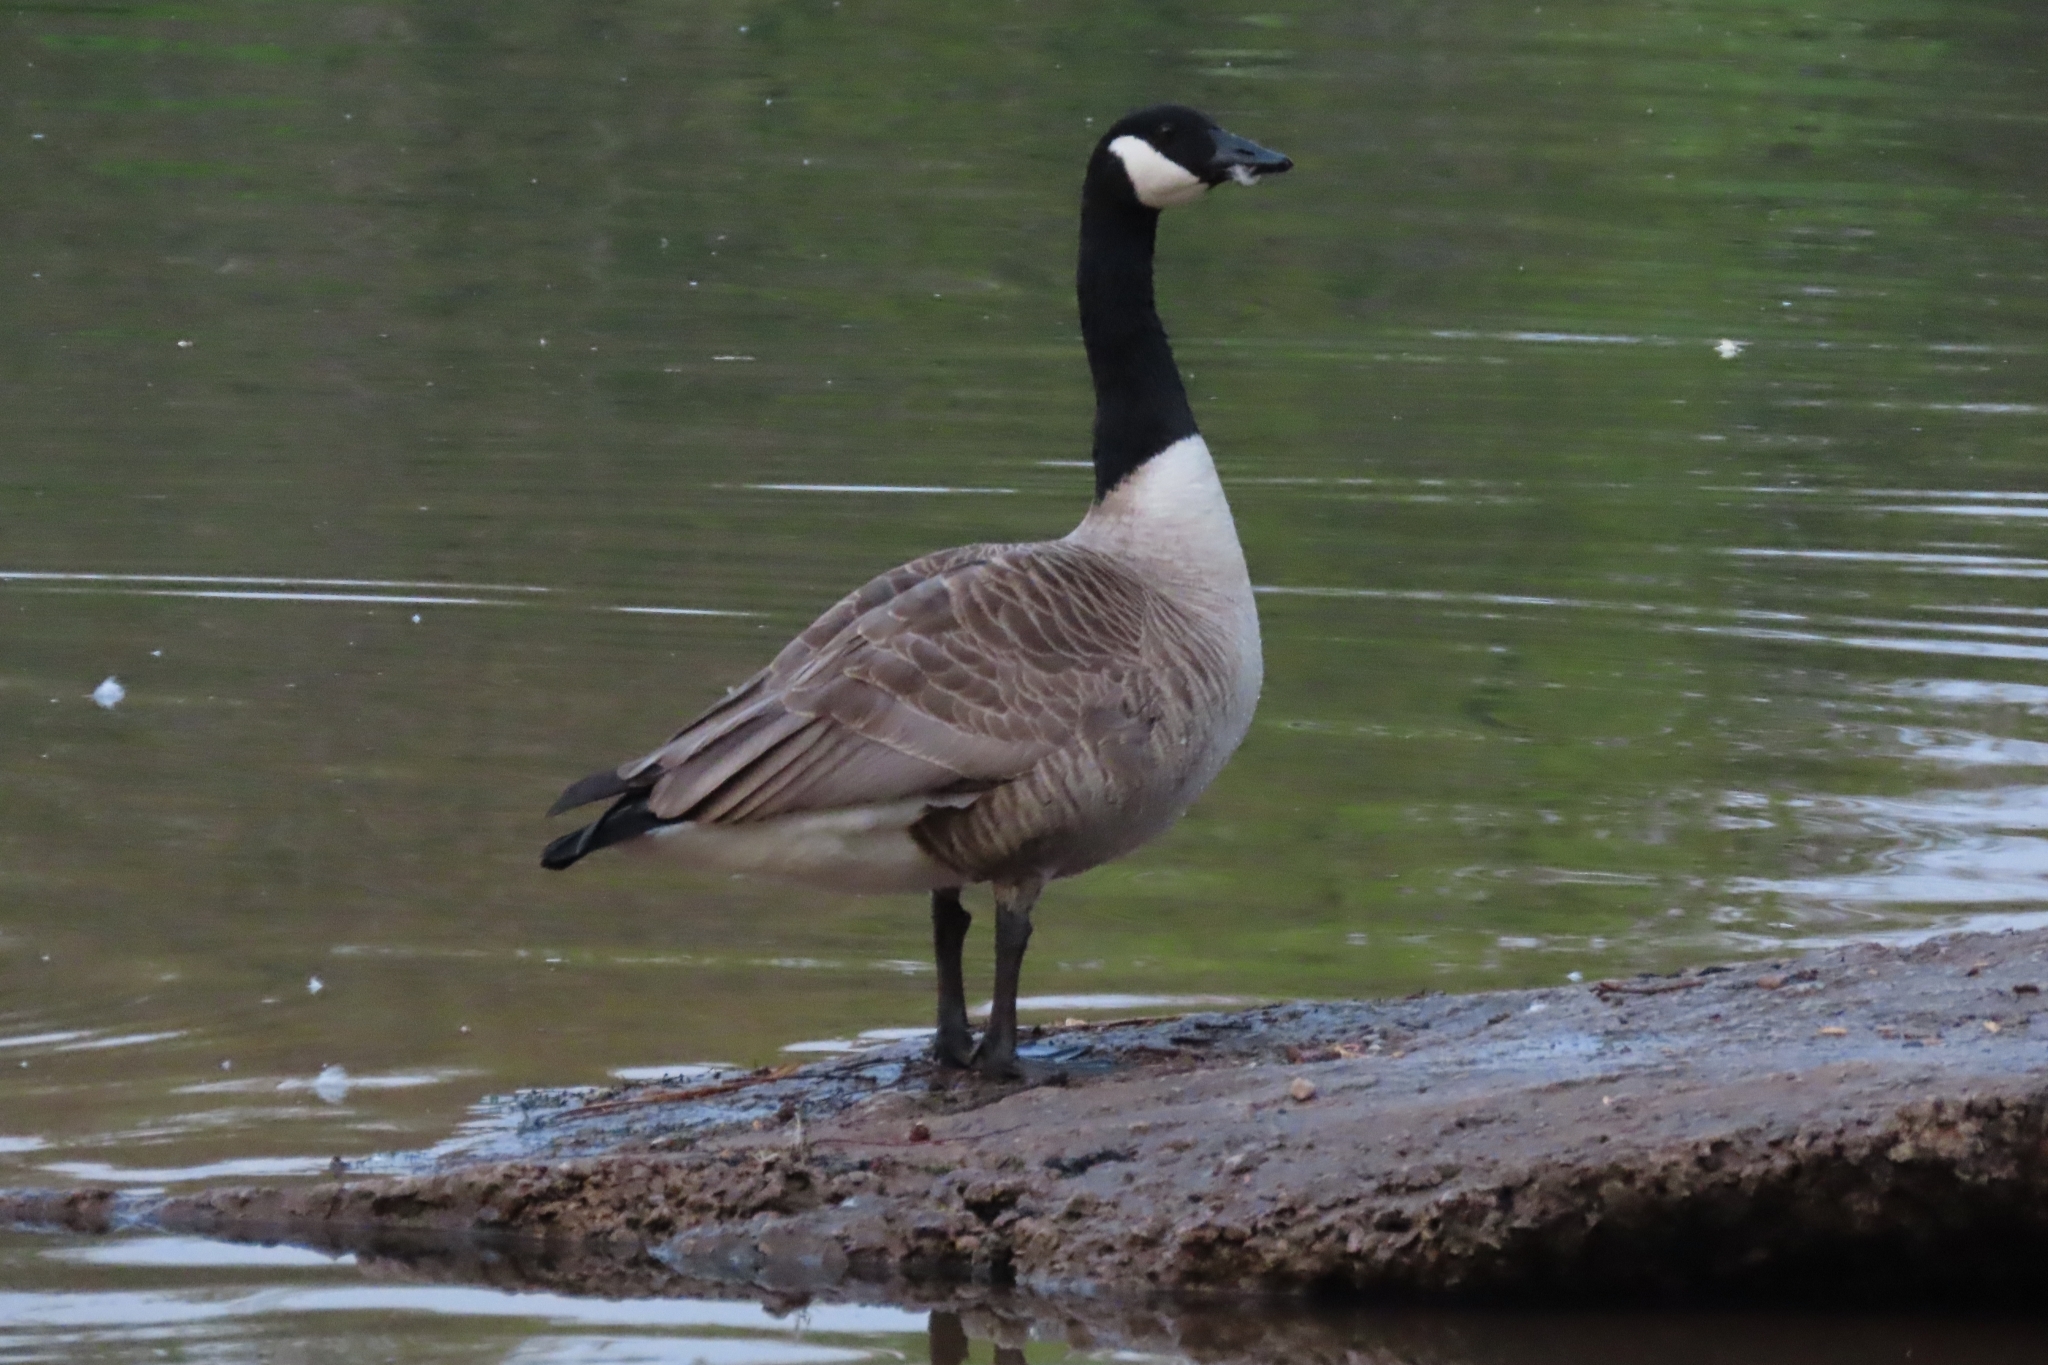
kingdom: Animalia
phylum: Chordata
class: Aves
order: Anseriformes
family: Anatidae
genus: Branta
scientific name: Branta canadensis
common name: Canada goose
